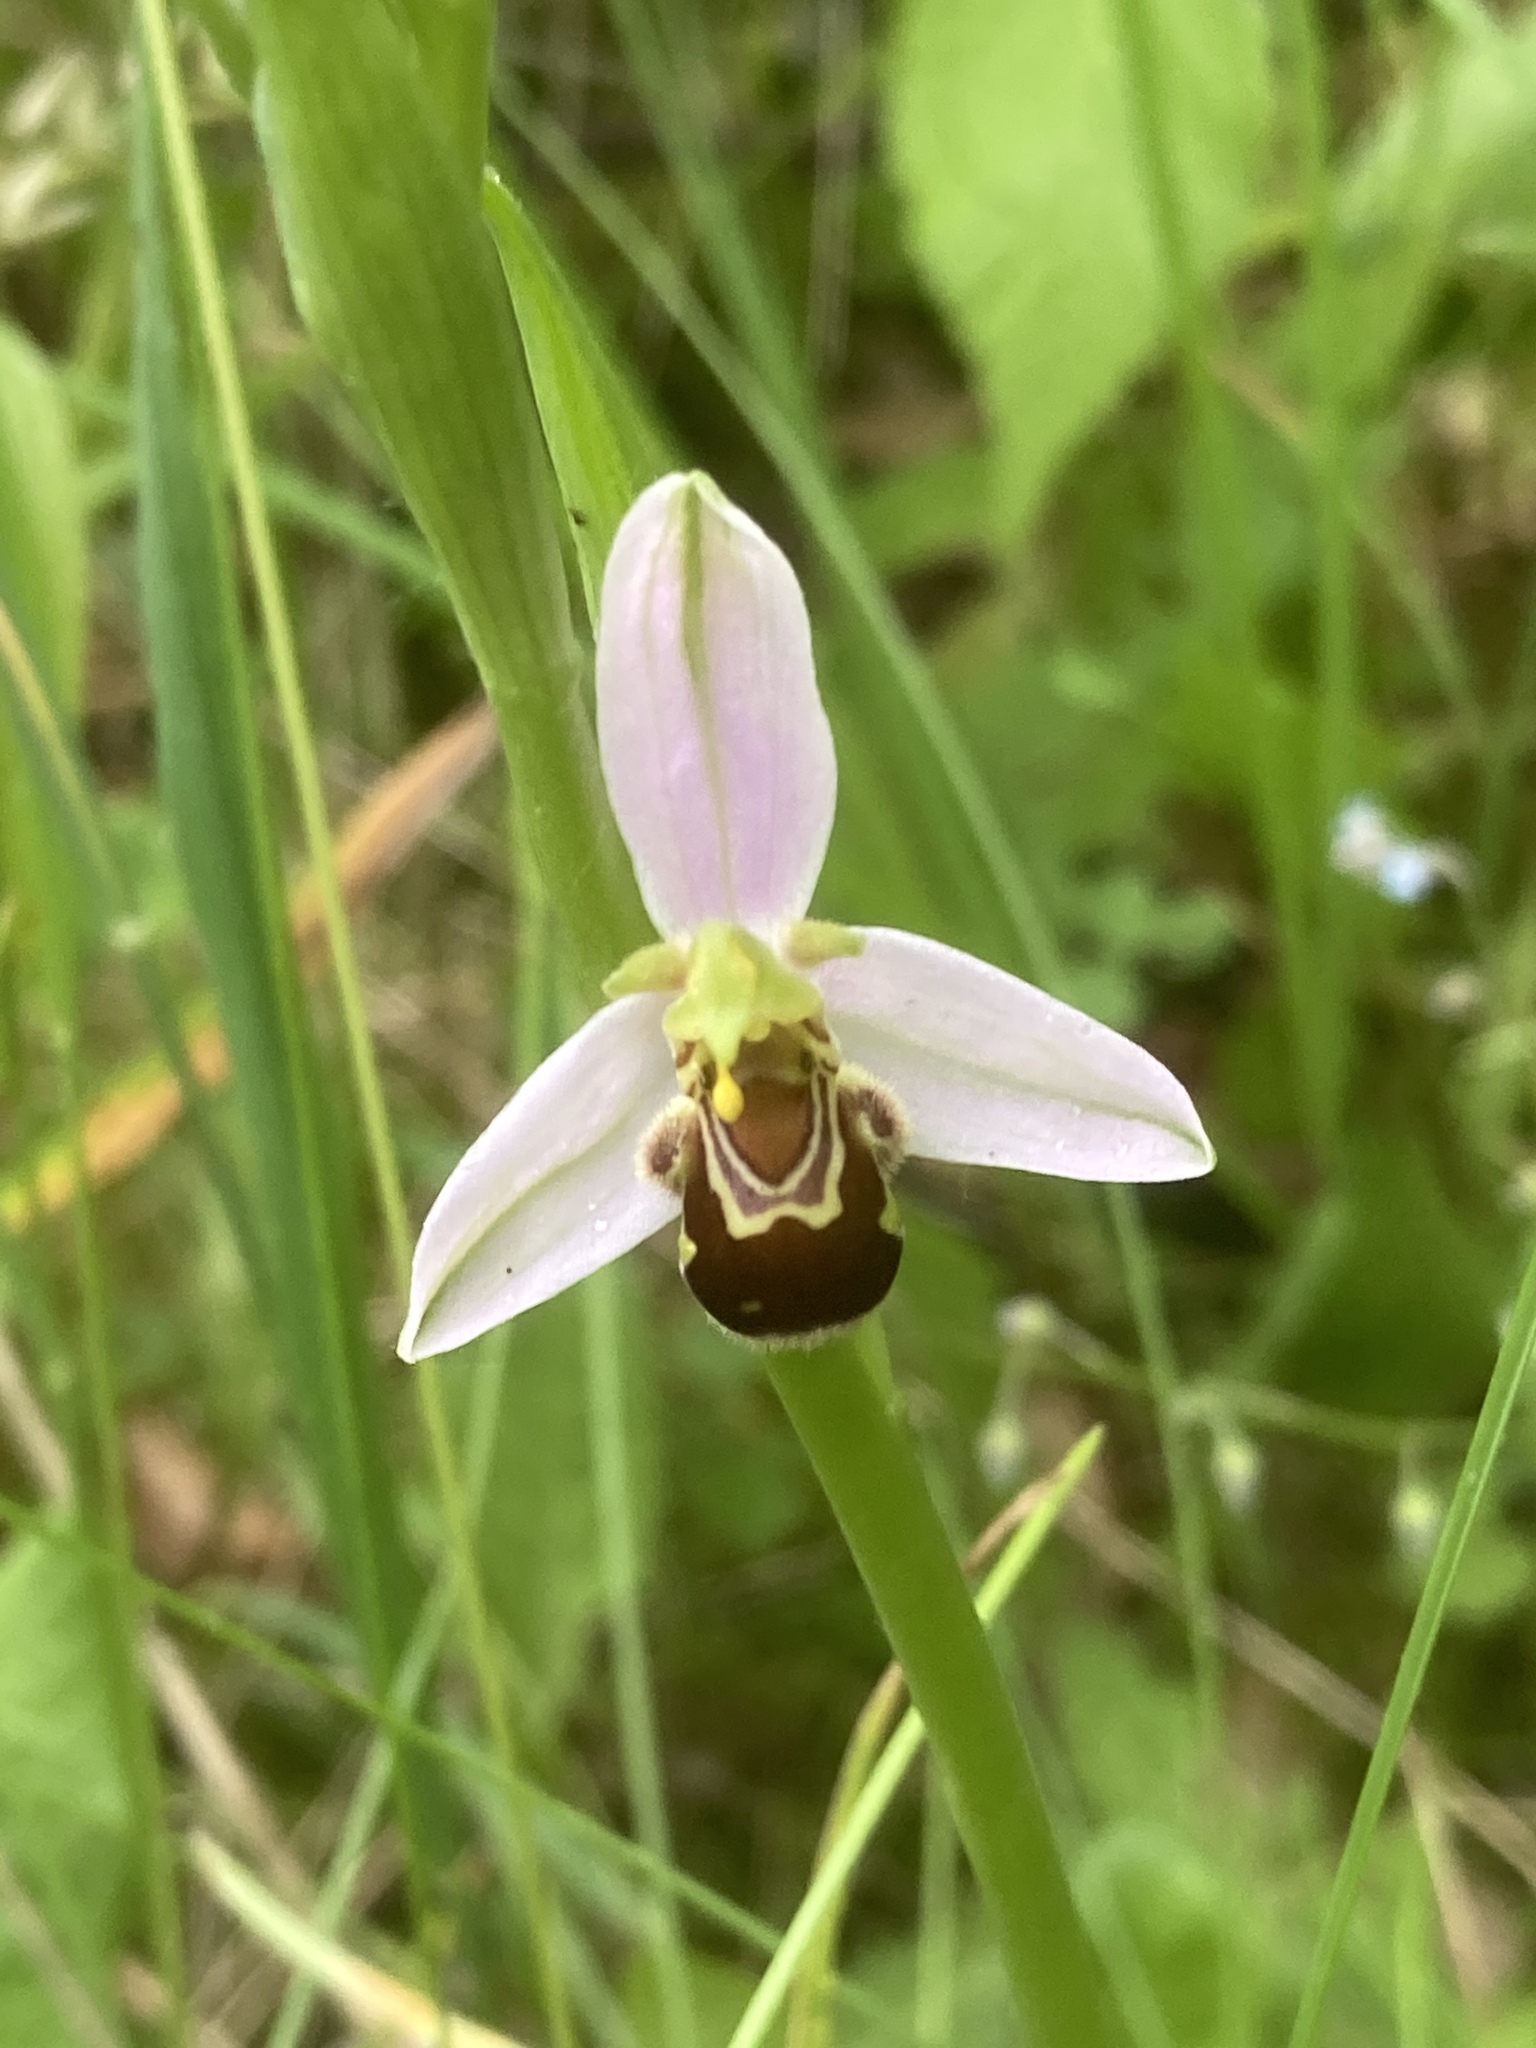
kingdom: Plantae
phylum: Tracheophyta
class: Liliopsida
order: Asparagales
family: Orchidaceae
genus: Ophrys
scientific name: Ophrys apifera
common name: Bee orchid
